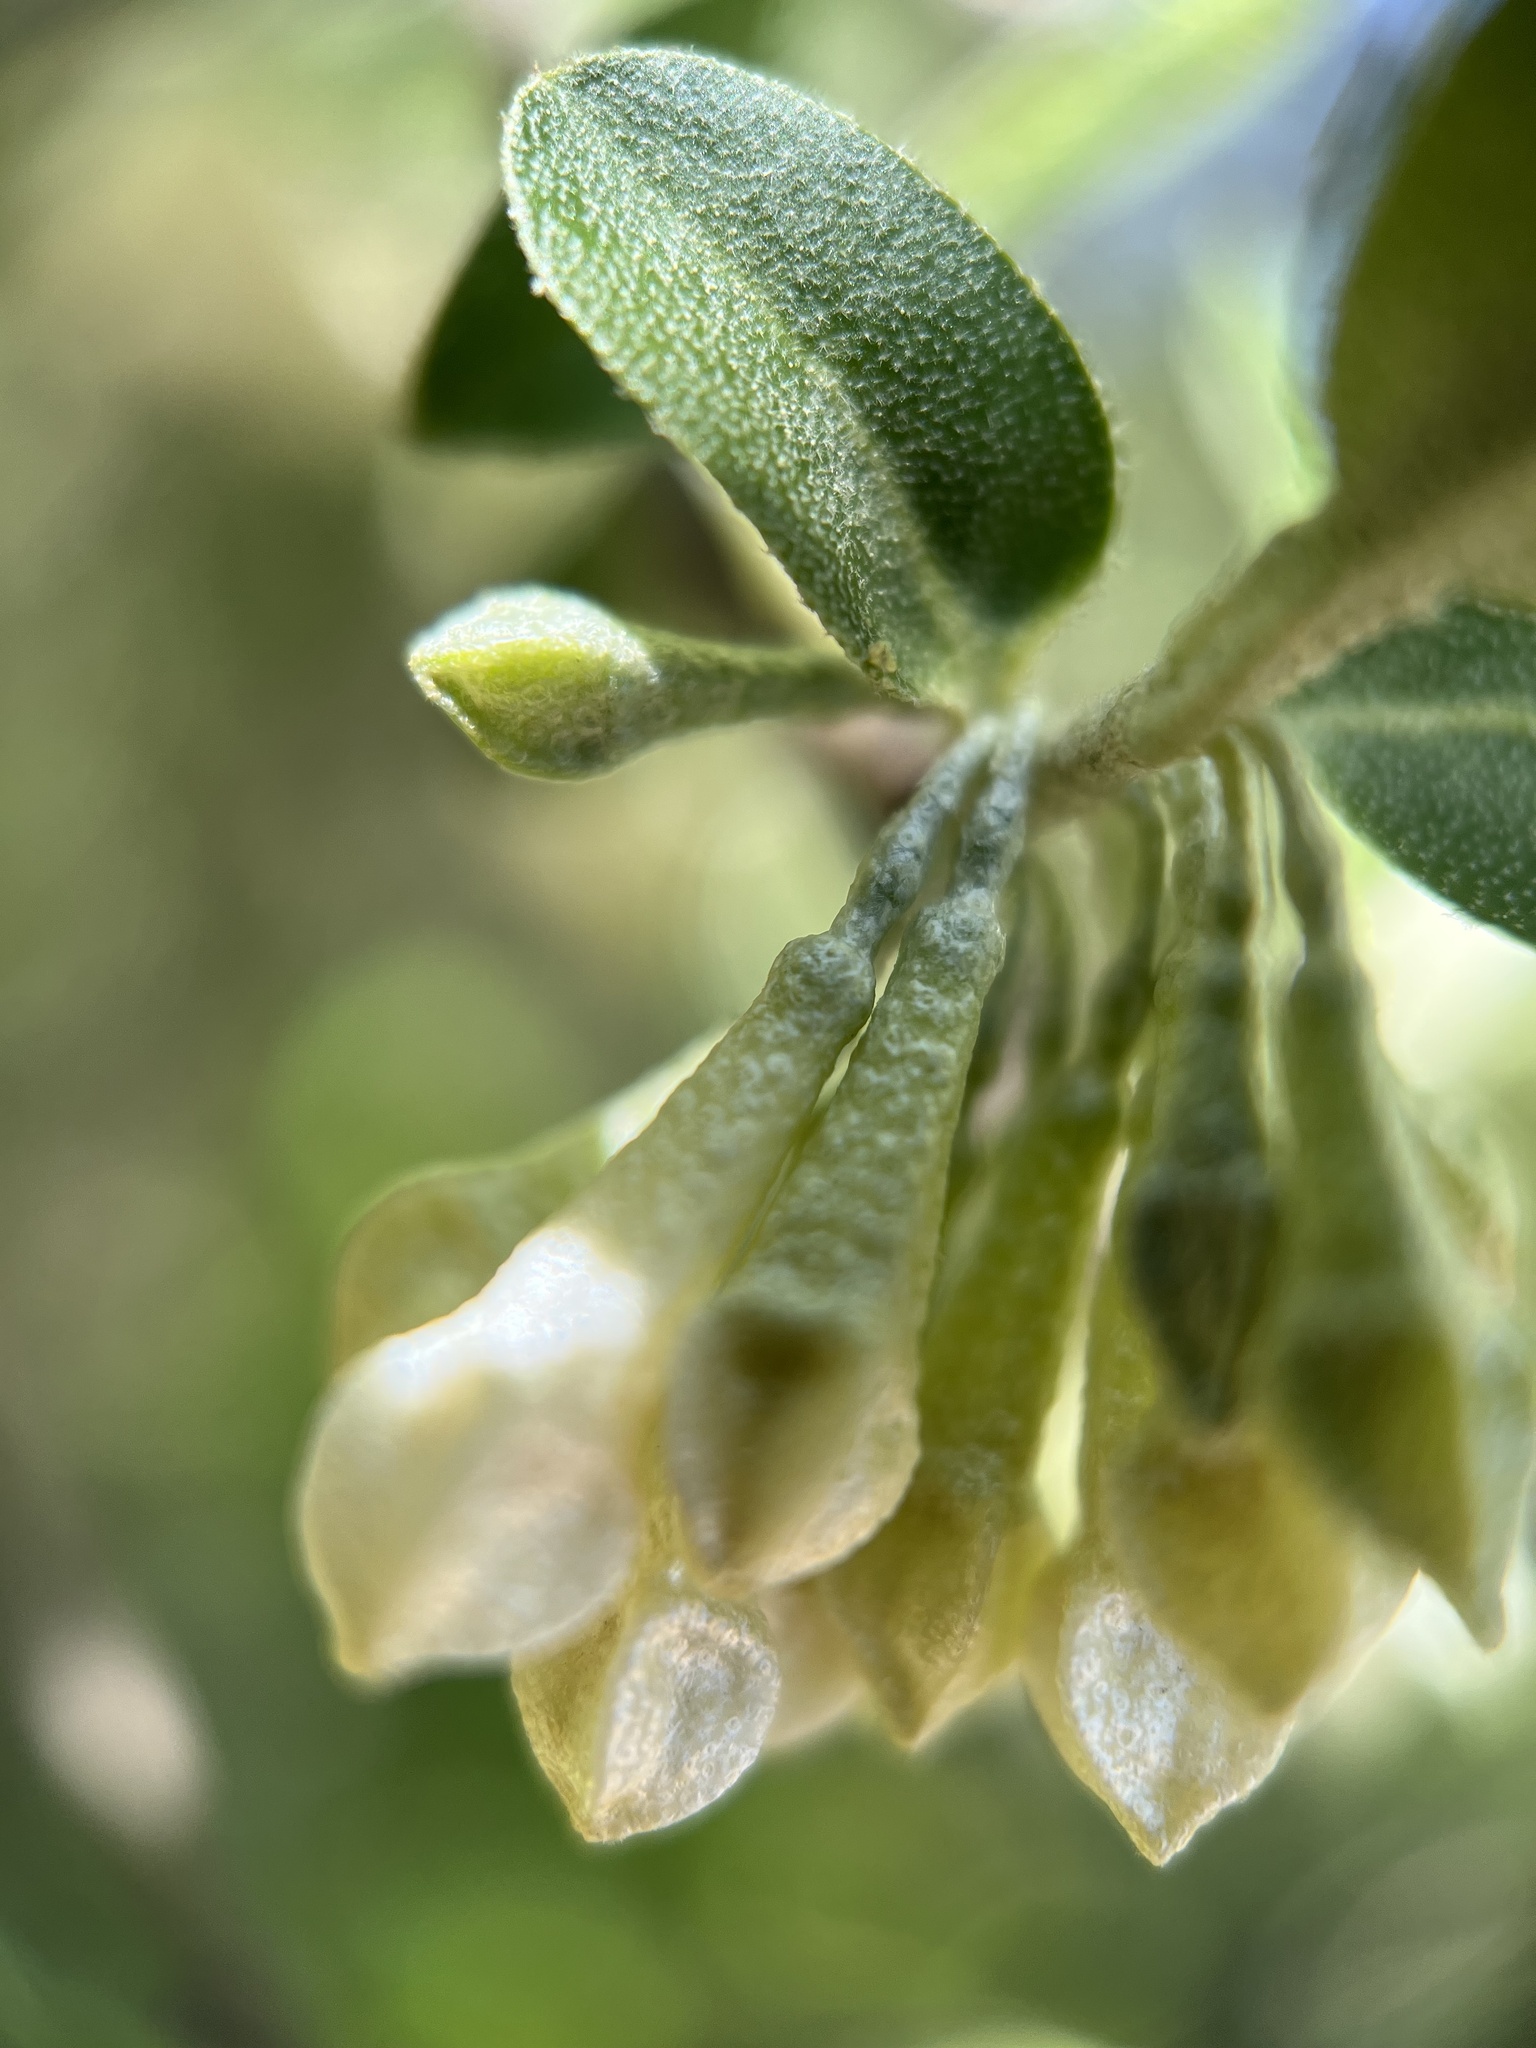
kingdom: Plantae
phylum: Tracheophyta
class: Magnoliopsida
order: Rosales
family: Elaeagnaceae
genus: Elaeagnus
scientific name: Elaeagnus umbellata
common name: Autumn olive
